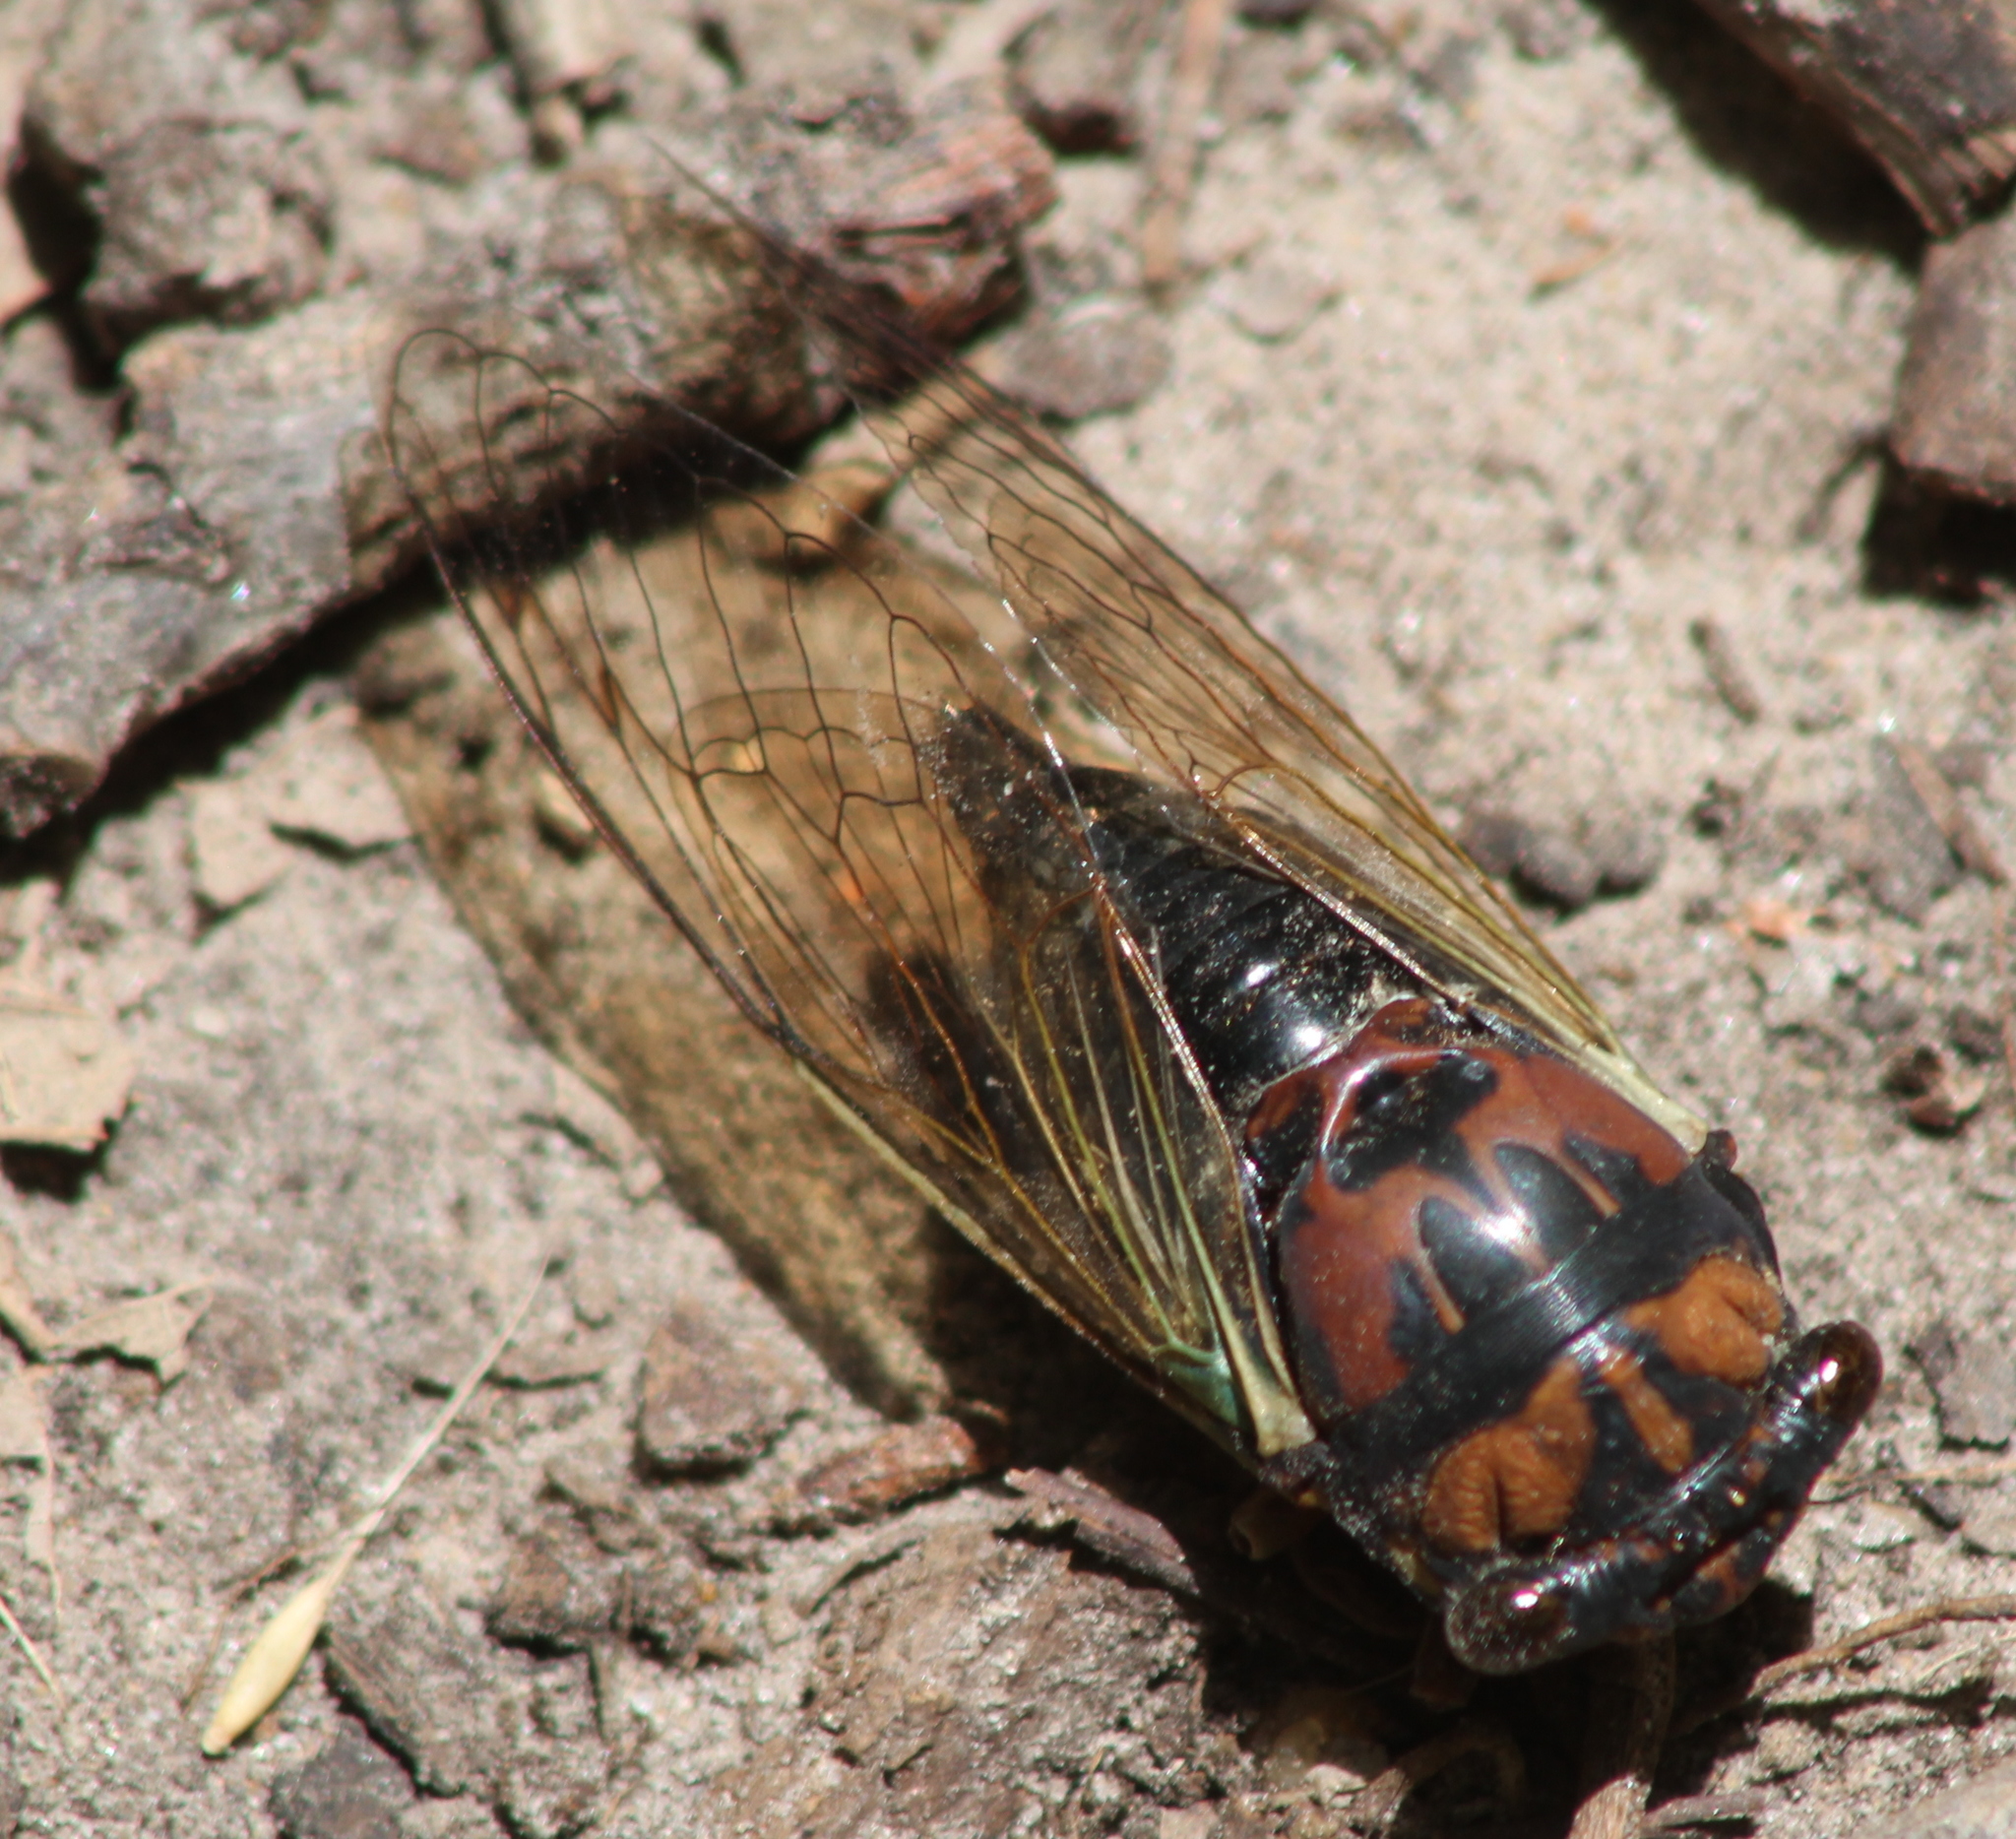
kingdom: Animalia
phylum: Arthropoda
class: Insecta
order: Hemiptera
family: Cicadidae
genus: Neotibicen
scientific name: Neotibicen lyricen
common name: Lyric cicada
